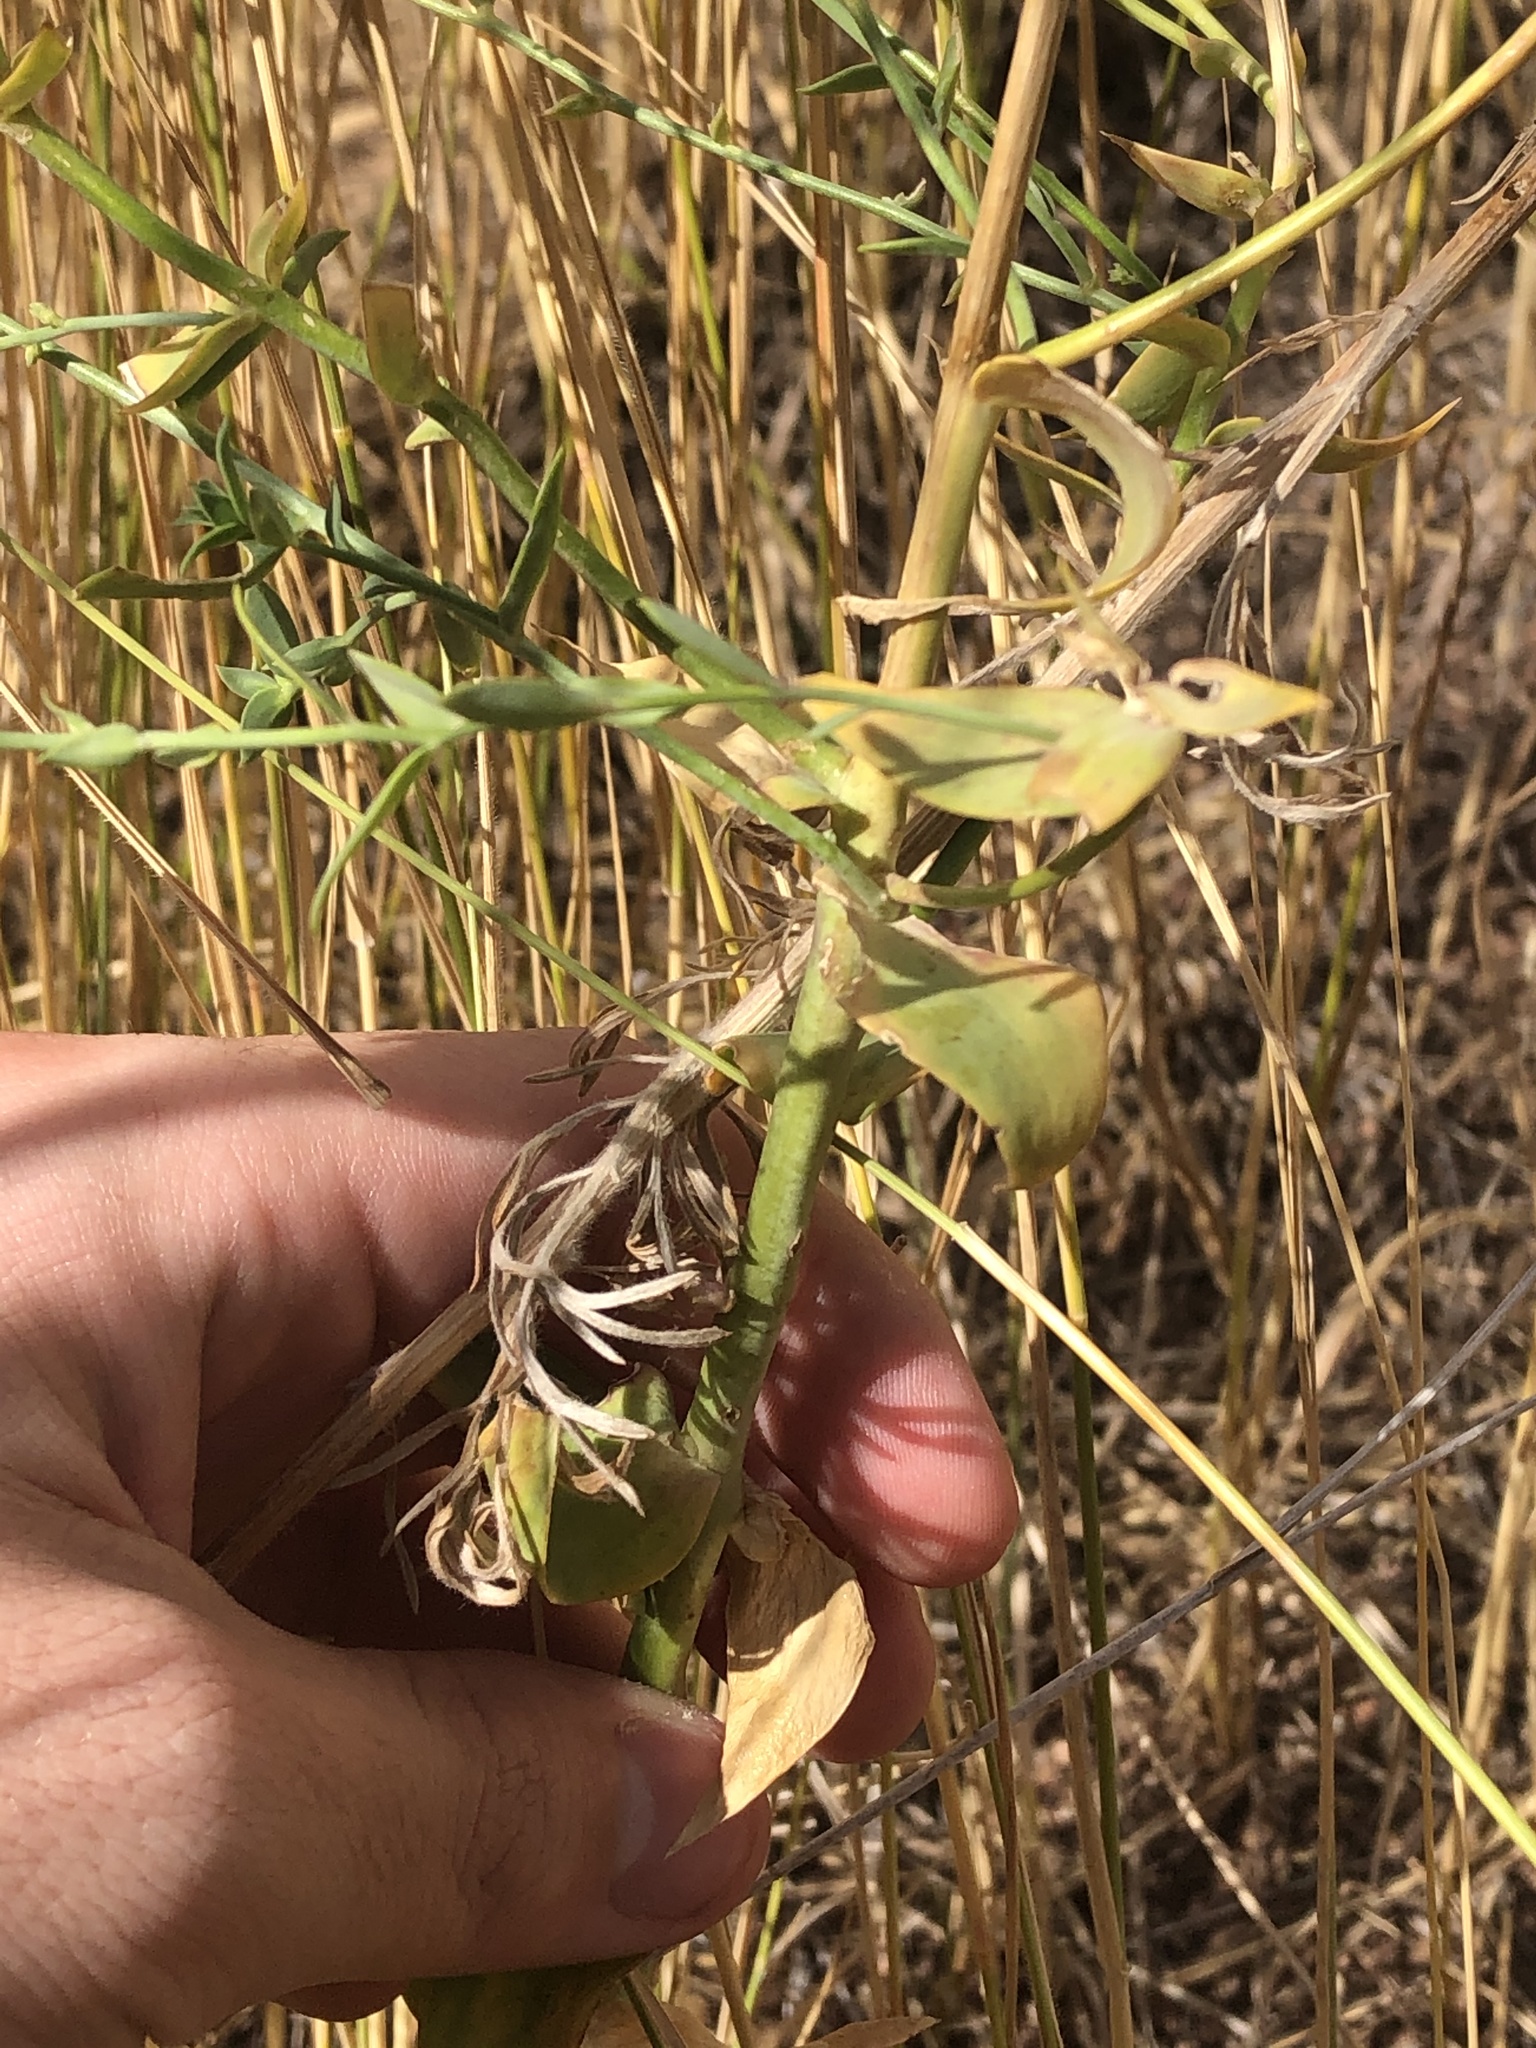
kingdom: Plantae
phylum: Tracheophyta
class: Magnoliopsida
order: Lamiales
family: Plantaginaceae
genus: Linaria
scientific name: Linaria dalmatica
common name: Dalmatian toadflax
